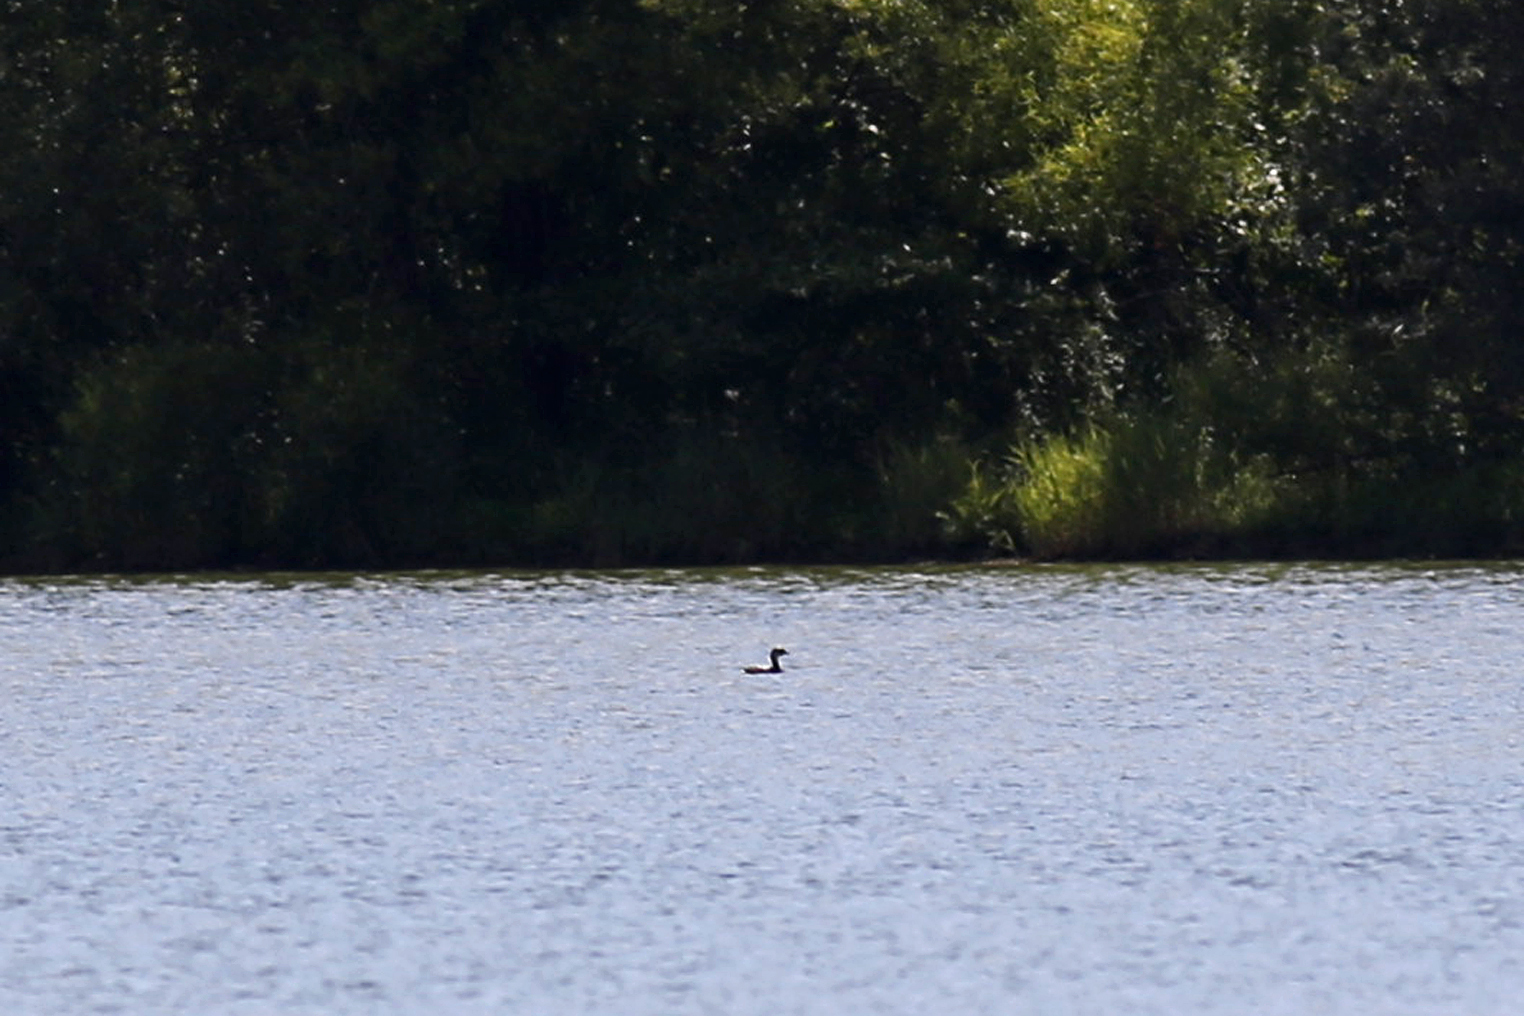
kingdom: Animalia
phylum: Chordata
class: Aves
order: Podicipediformes
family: Podicipedidae
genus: Podilymbus
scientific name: Podilymbus podiceps
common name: Pied-billed grebe
